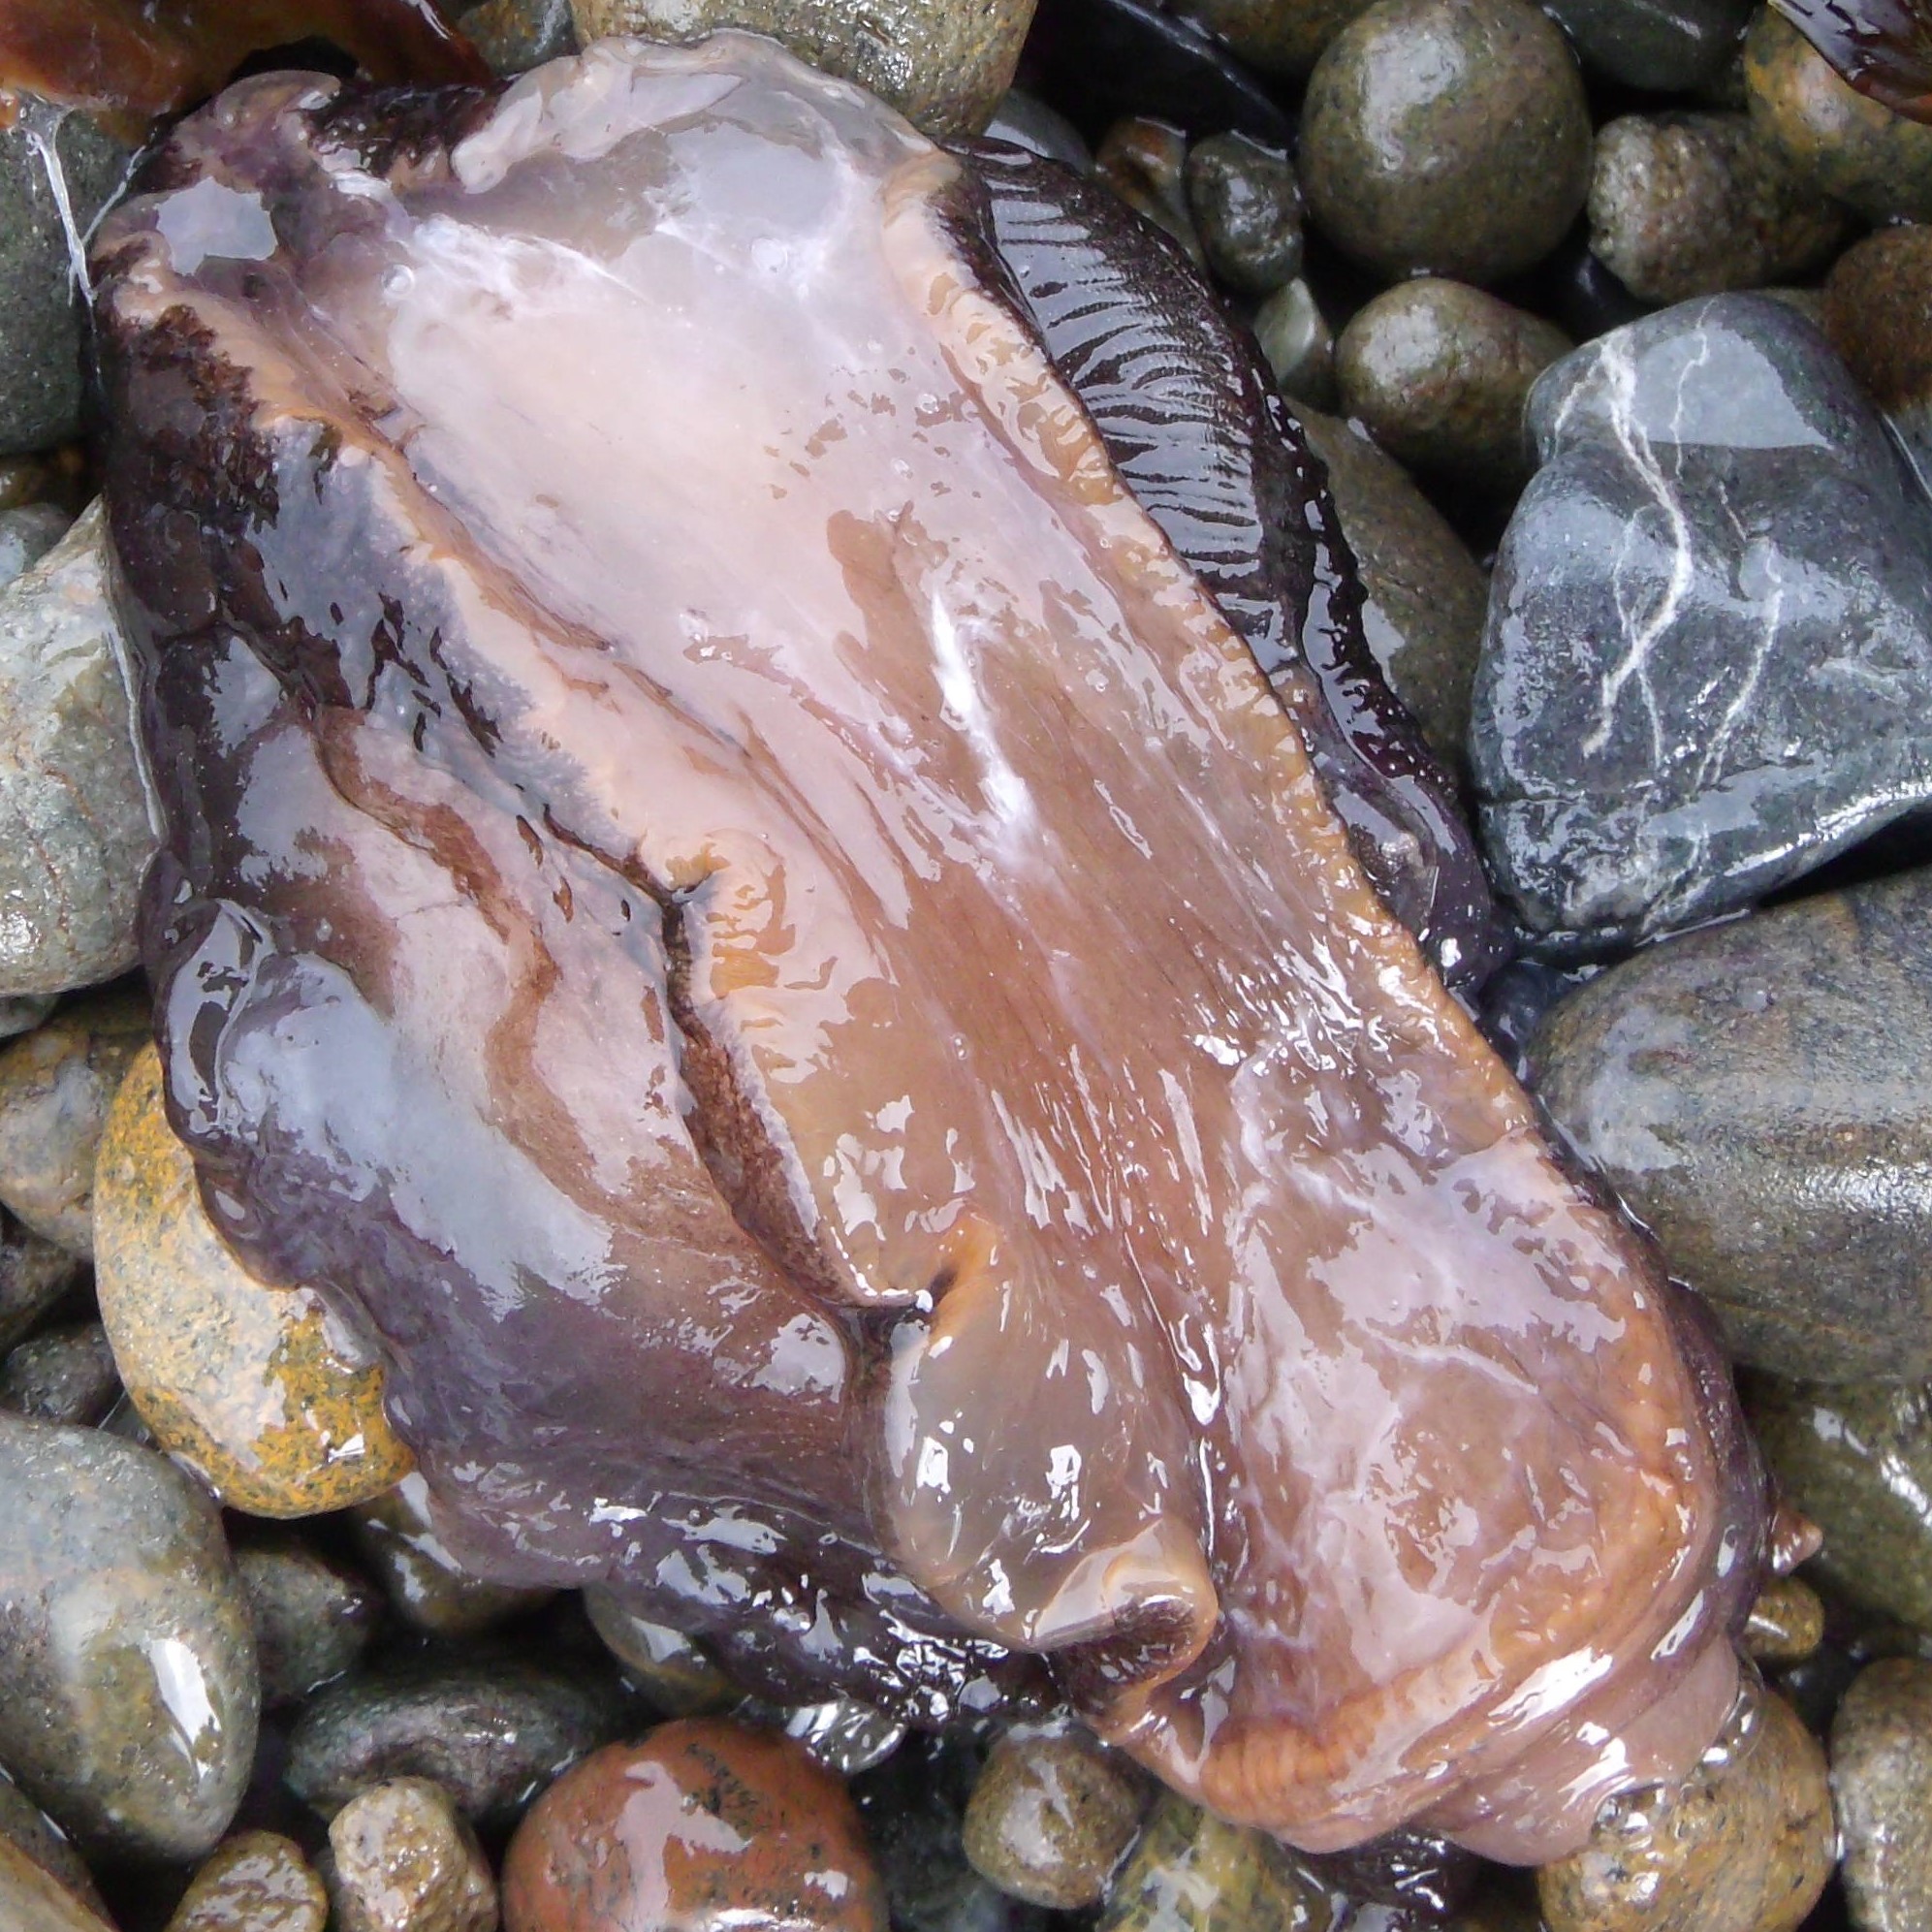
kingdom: Animalia
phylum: Mollusca
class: Gastropoda
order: Pleurobranchida
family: Pleurobranchaeidae
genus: Pleurobranchaea
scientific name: Pleurobranchaea maculata
